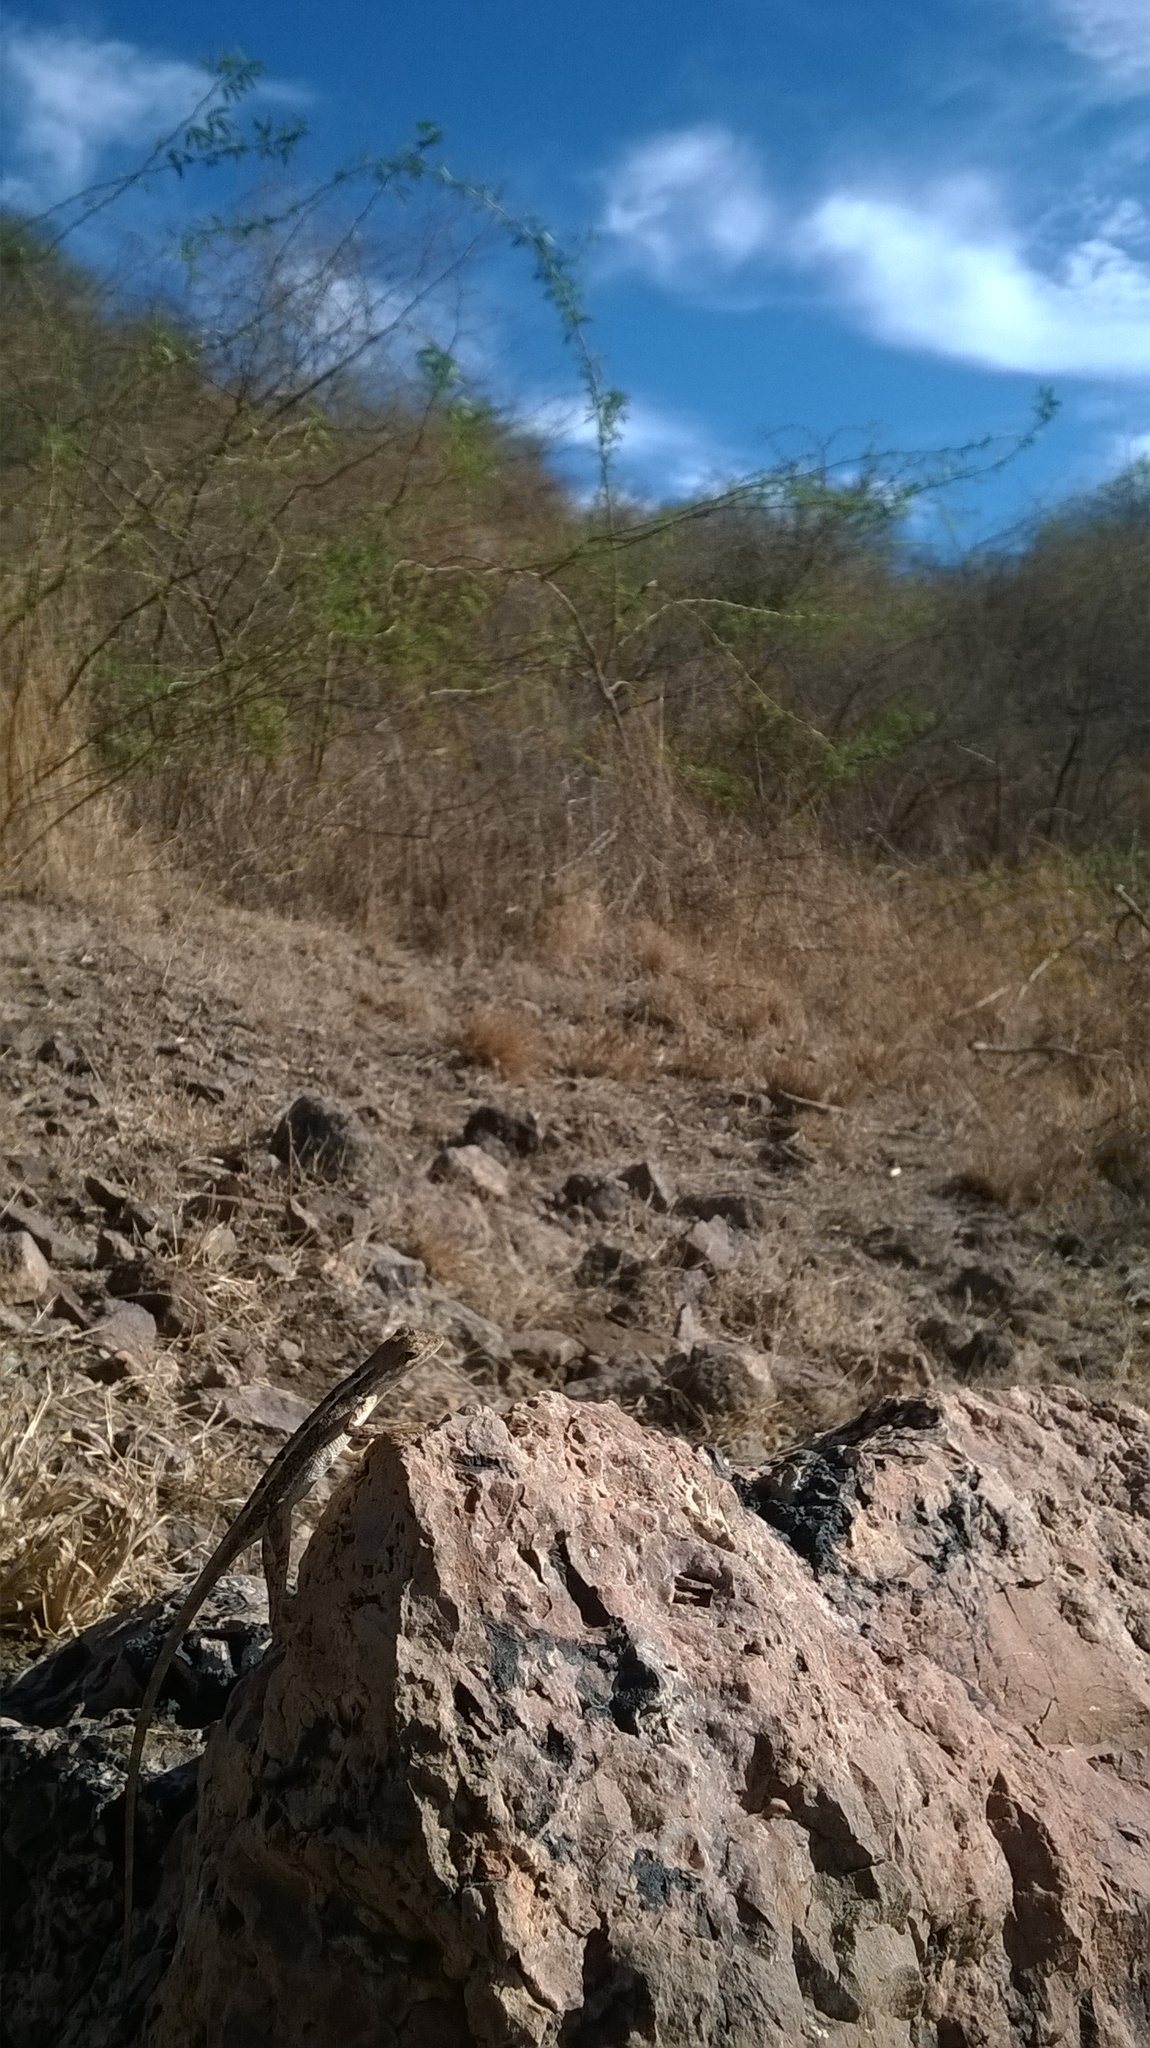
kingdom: Animalia
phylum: Chordata
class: Squamata
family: Agamidae
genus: Sitana
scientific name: Sitana spinaecephalus
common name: Spiny-headed fan-throated lizard
